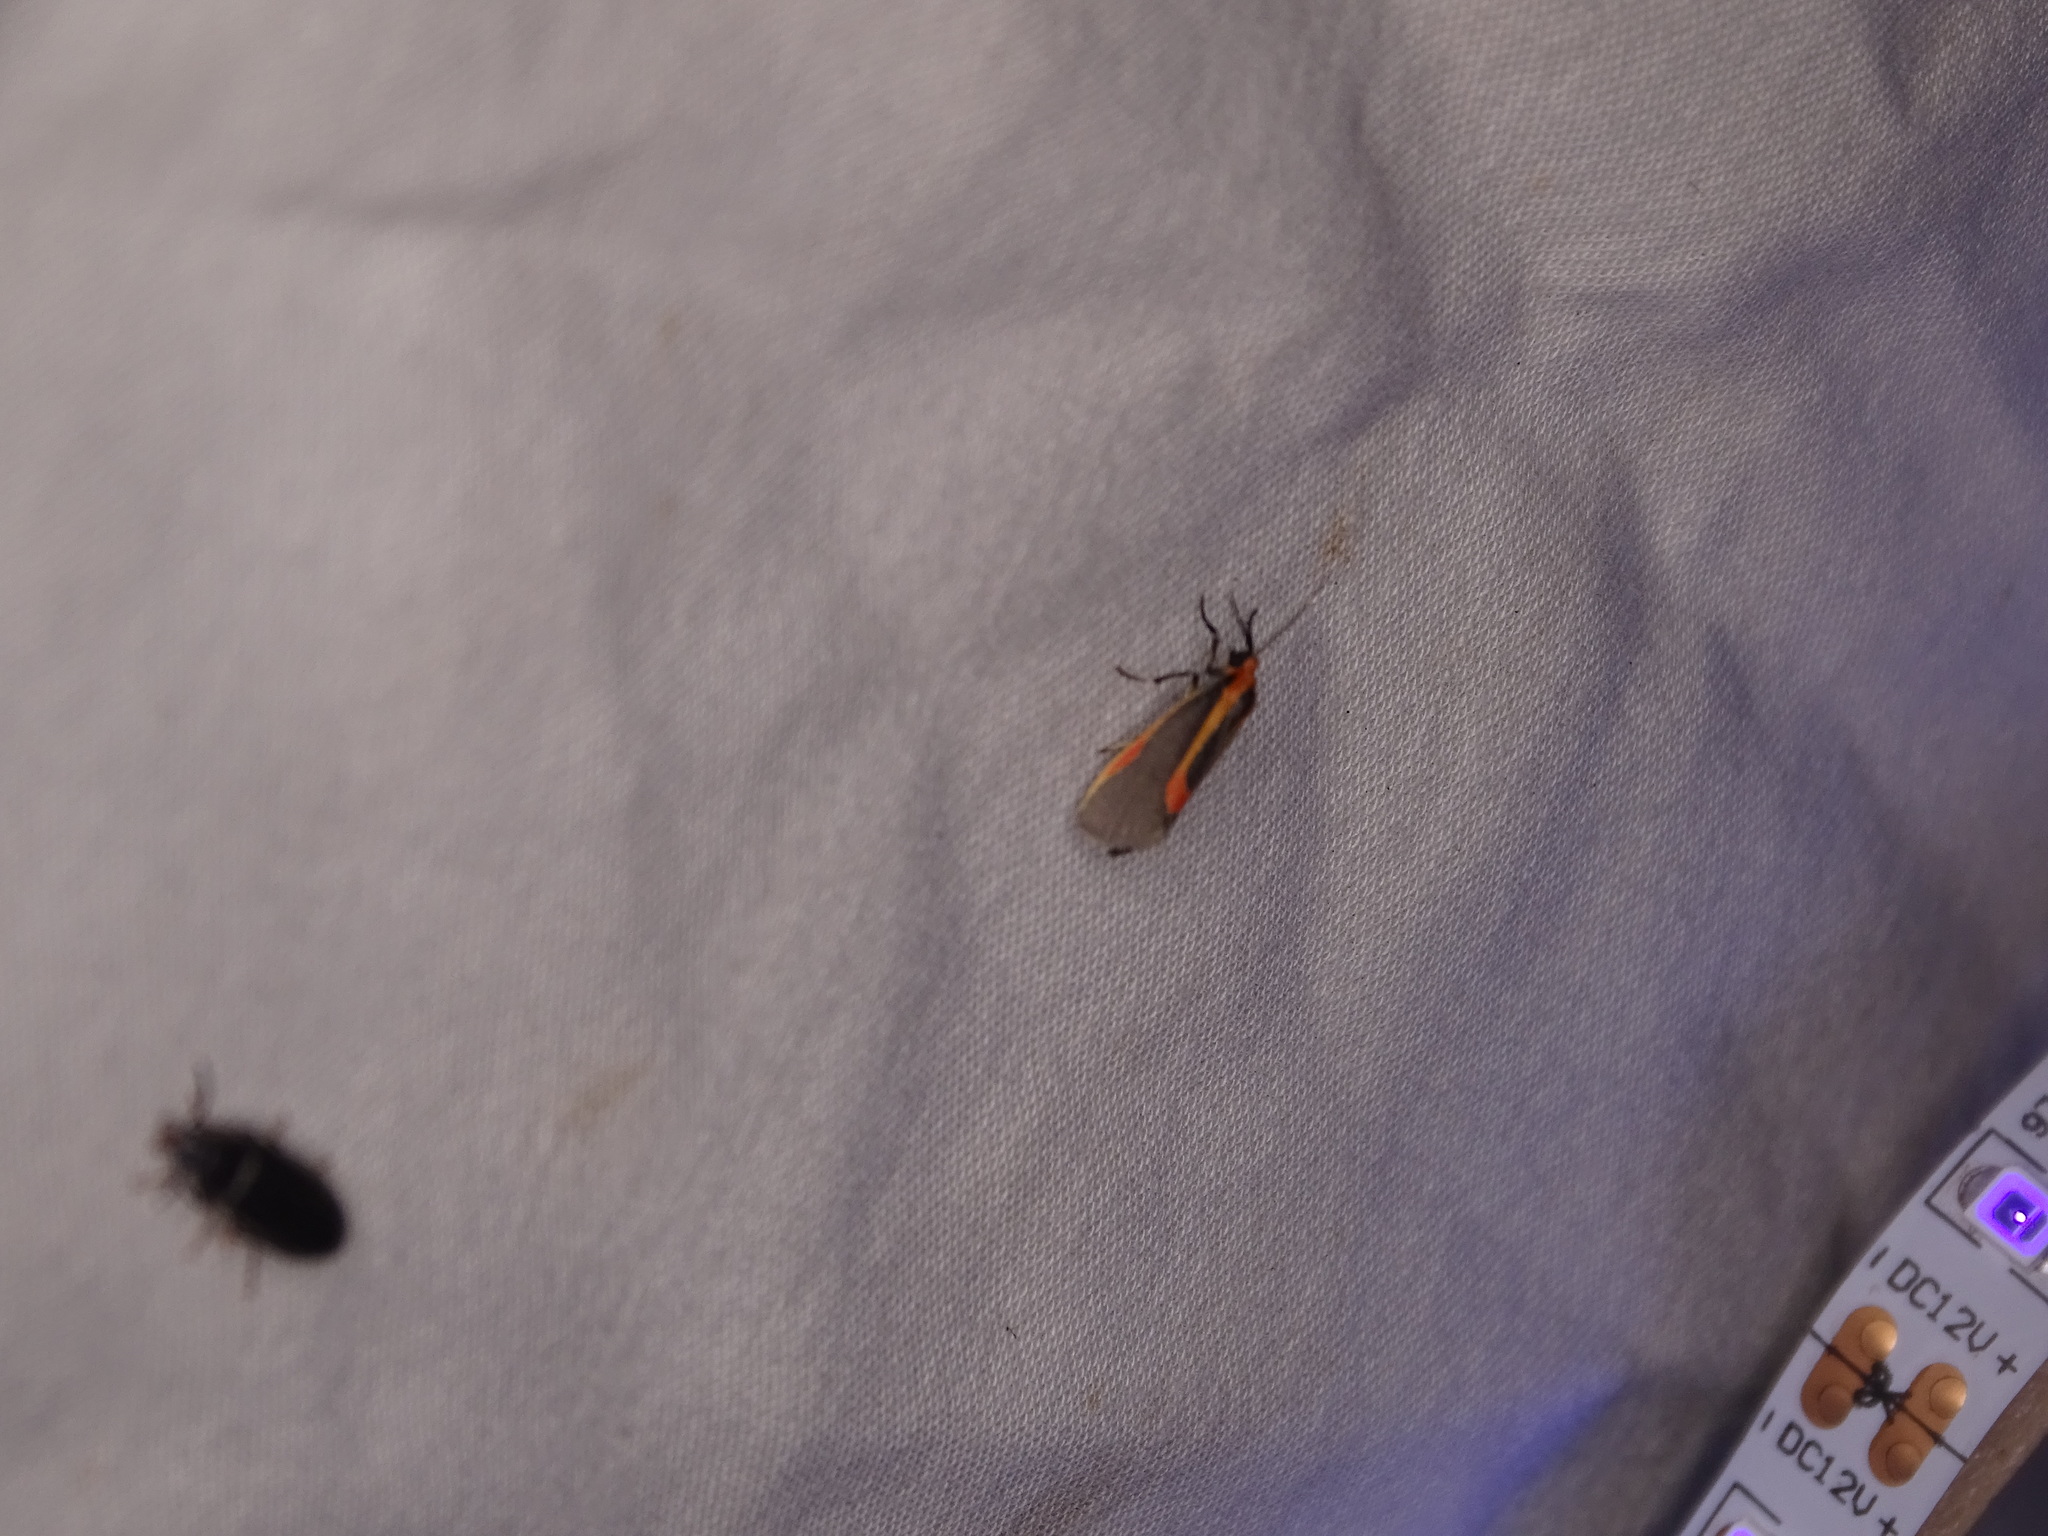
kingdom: Animalia
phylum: Arthropoda
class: Insecta
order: Lepidoptera
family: Erebidae
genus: Cisthene
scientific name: Cisthene subjecta
